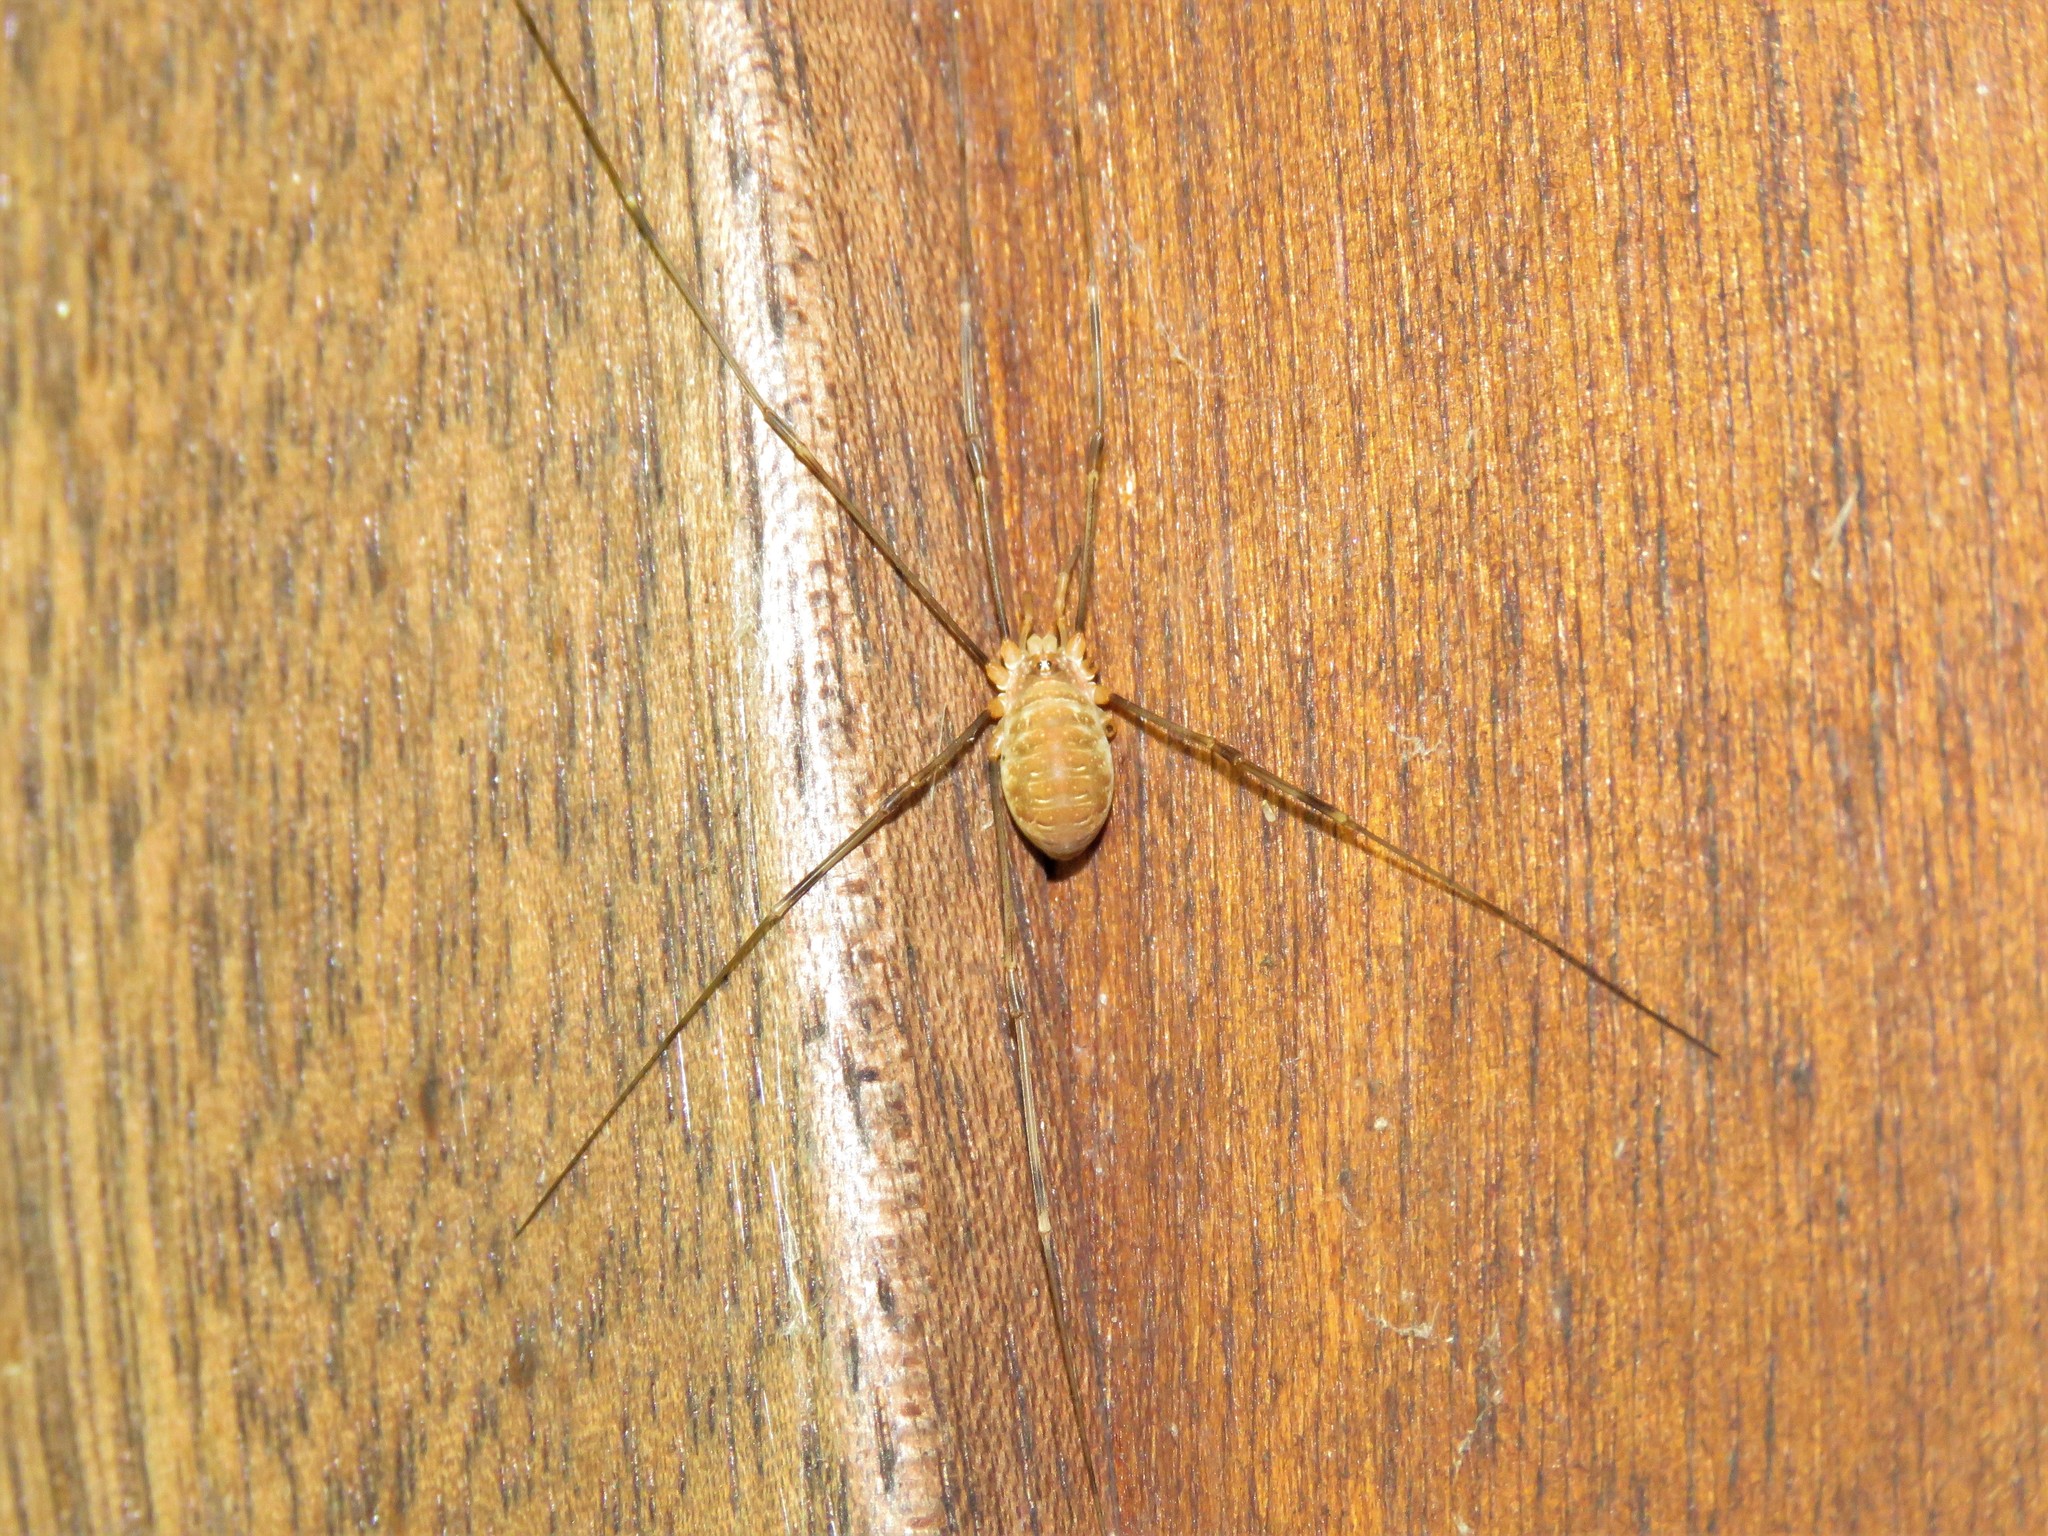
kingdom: Animalia
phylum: Arthropoda
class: Arachnida
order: Opiliones
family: Phalangiidae
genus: Opilio
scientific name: Opilio canestrinii
